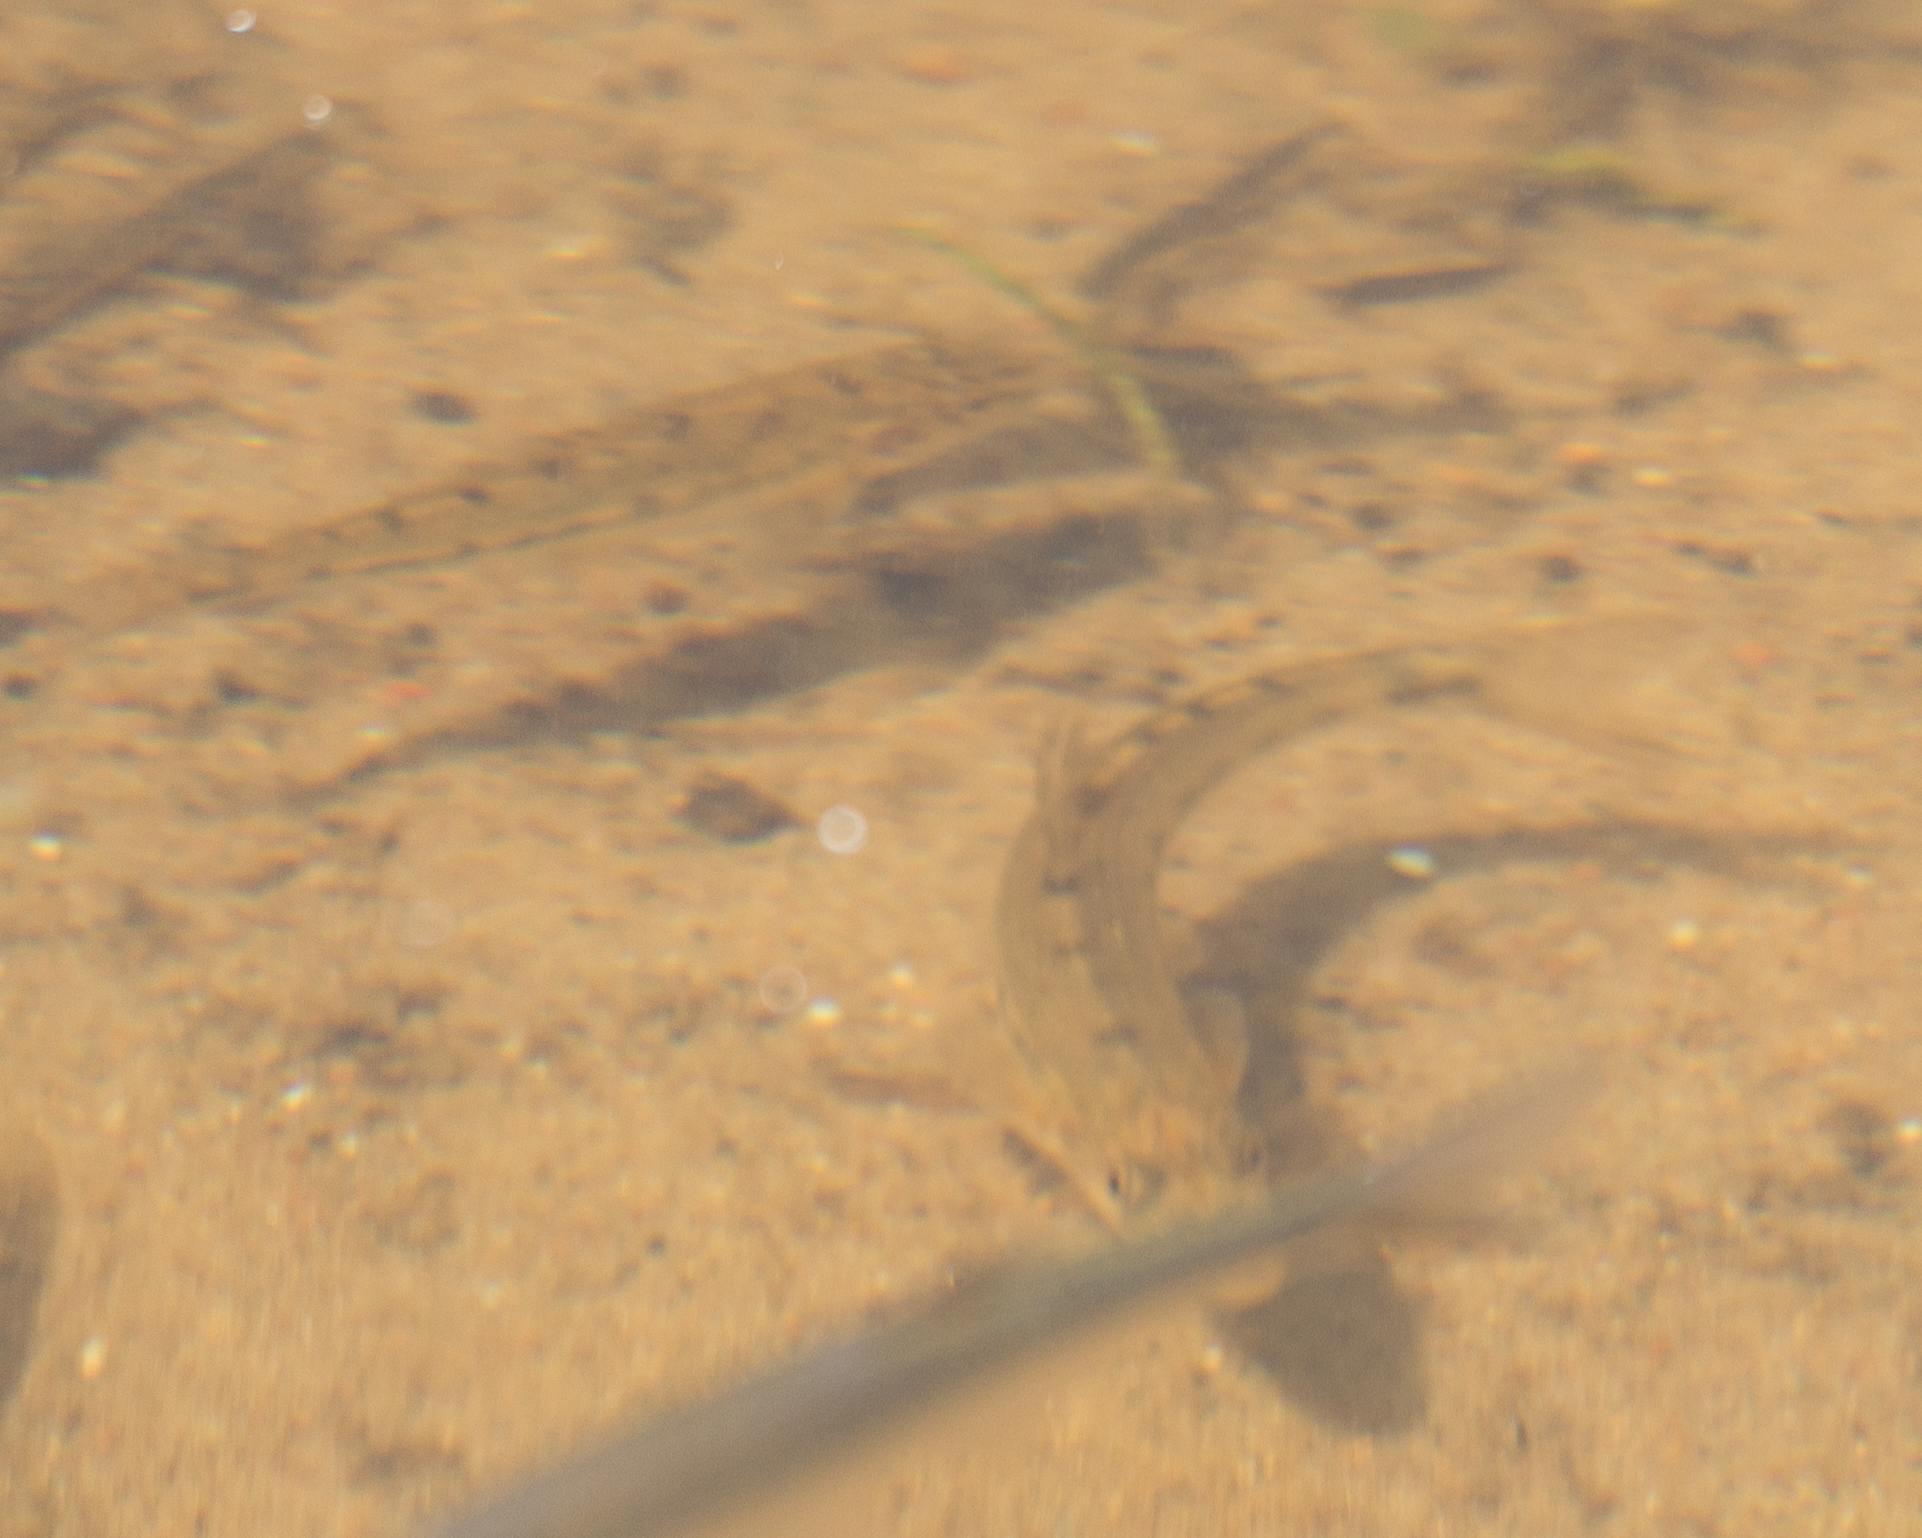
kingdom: Animalia
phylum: Chordata
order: Cypriniformes
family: Cyprinidae
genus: Gobio
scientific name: Gobio volgensis
